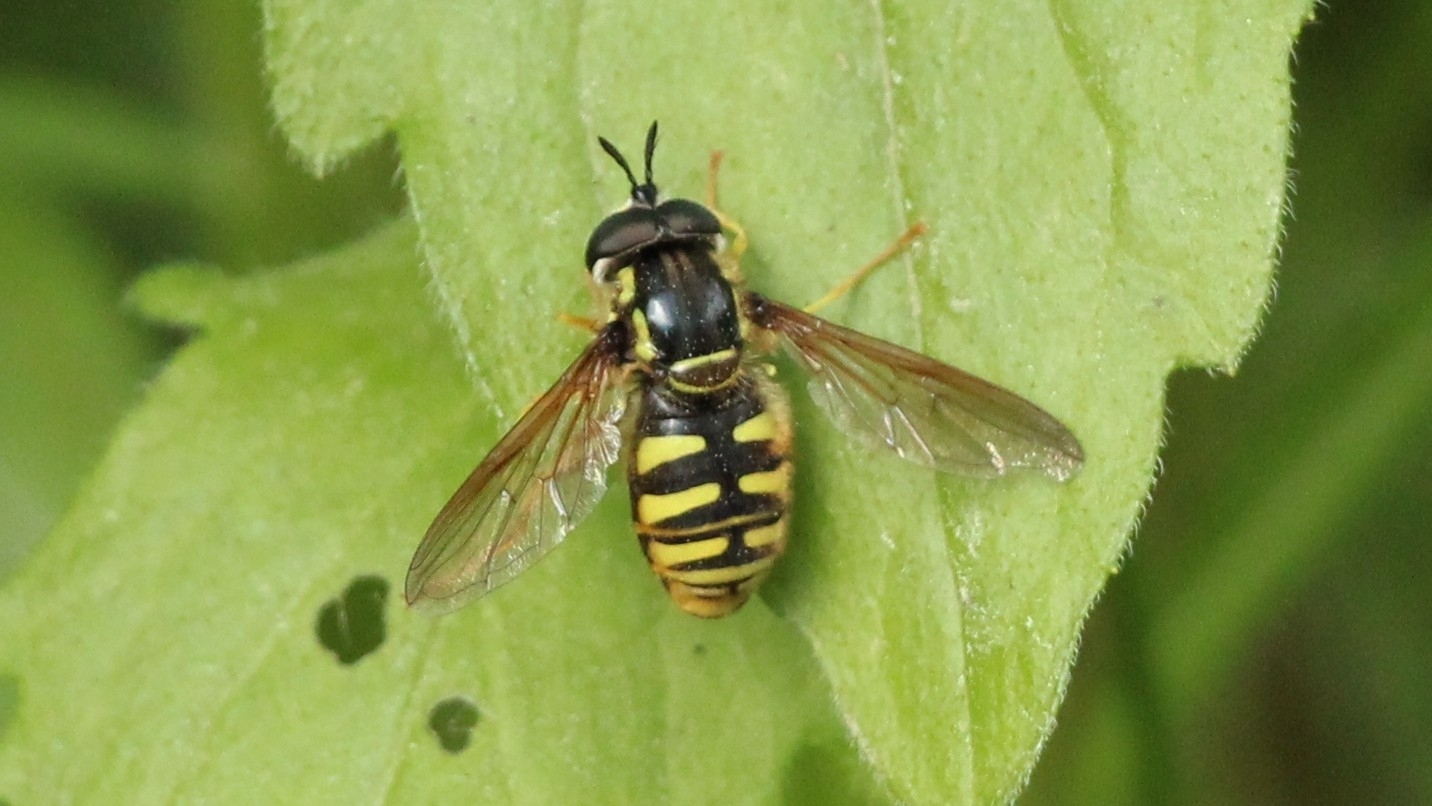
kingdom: Animalia
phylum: Arthropoda
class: Insecta
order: Diptera
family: Syrphidae
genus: Chrysotoxum
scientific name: Chrysotoxum cautum
